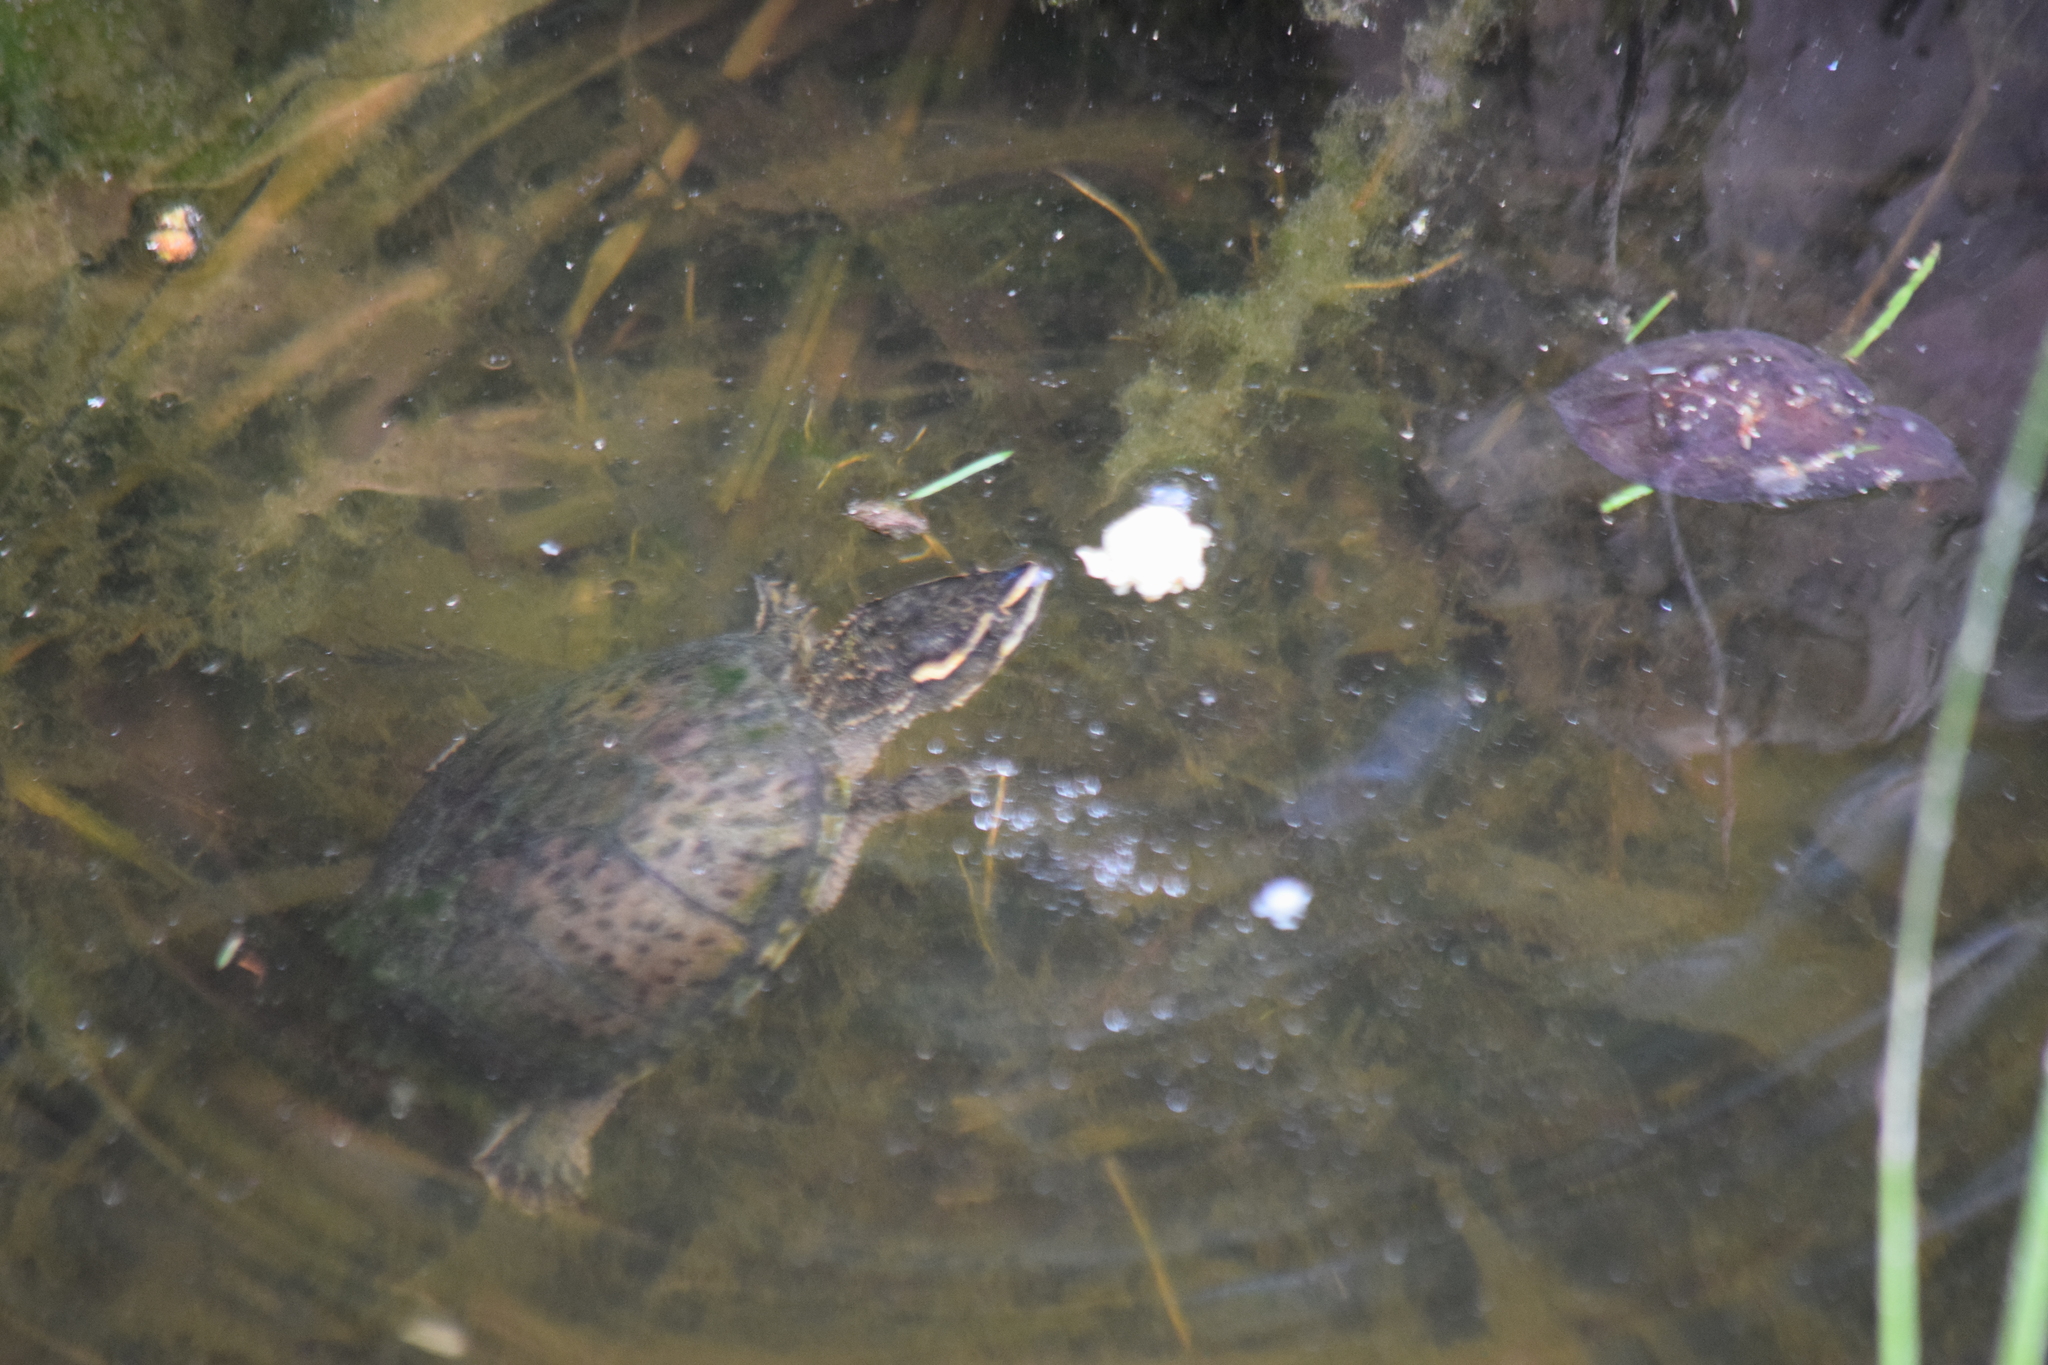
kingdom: Animalia
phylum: Chordata
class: Testudines
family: Kinosternidae
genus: Sternotherus
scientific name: Sternotherus odoratus
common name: Common musk turtle
